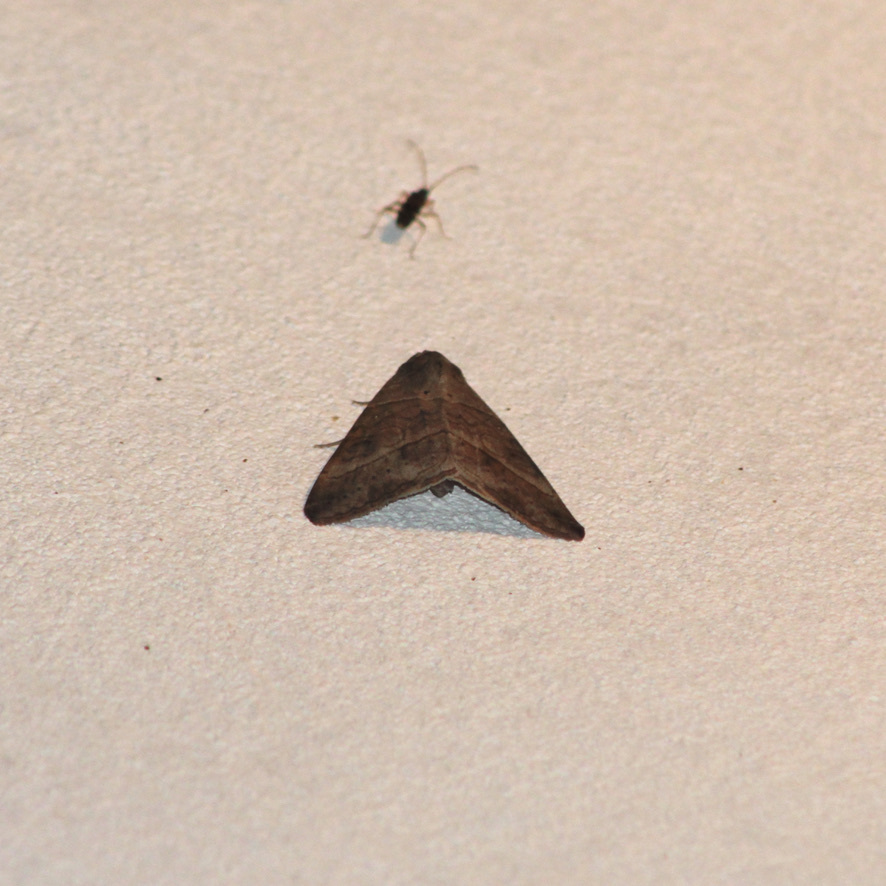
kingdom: Animalia
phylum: Arthropoda
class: Insecta
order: Lepidoptera
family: Erebidae
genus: Mocis
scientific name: Mocis latipes
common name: Striped grass looper
